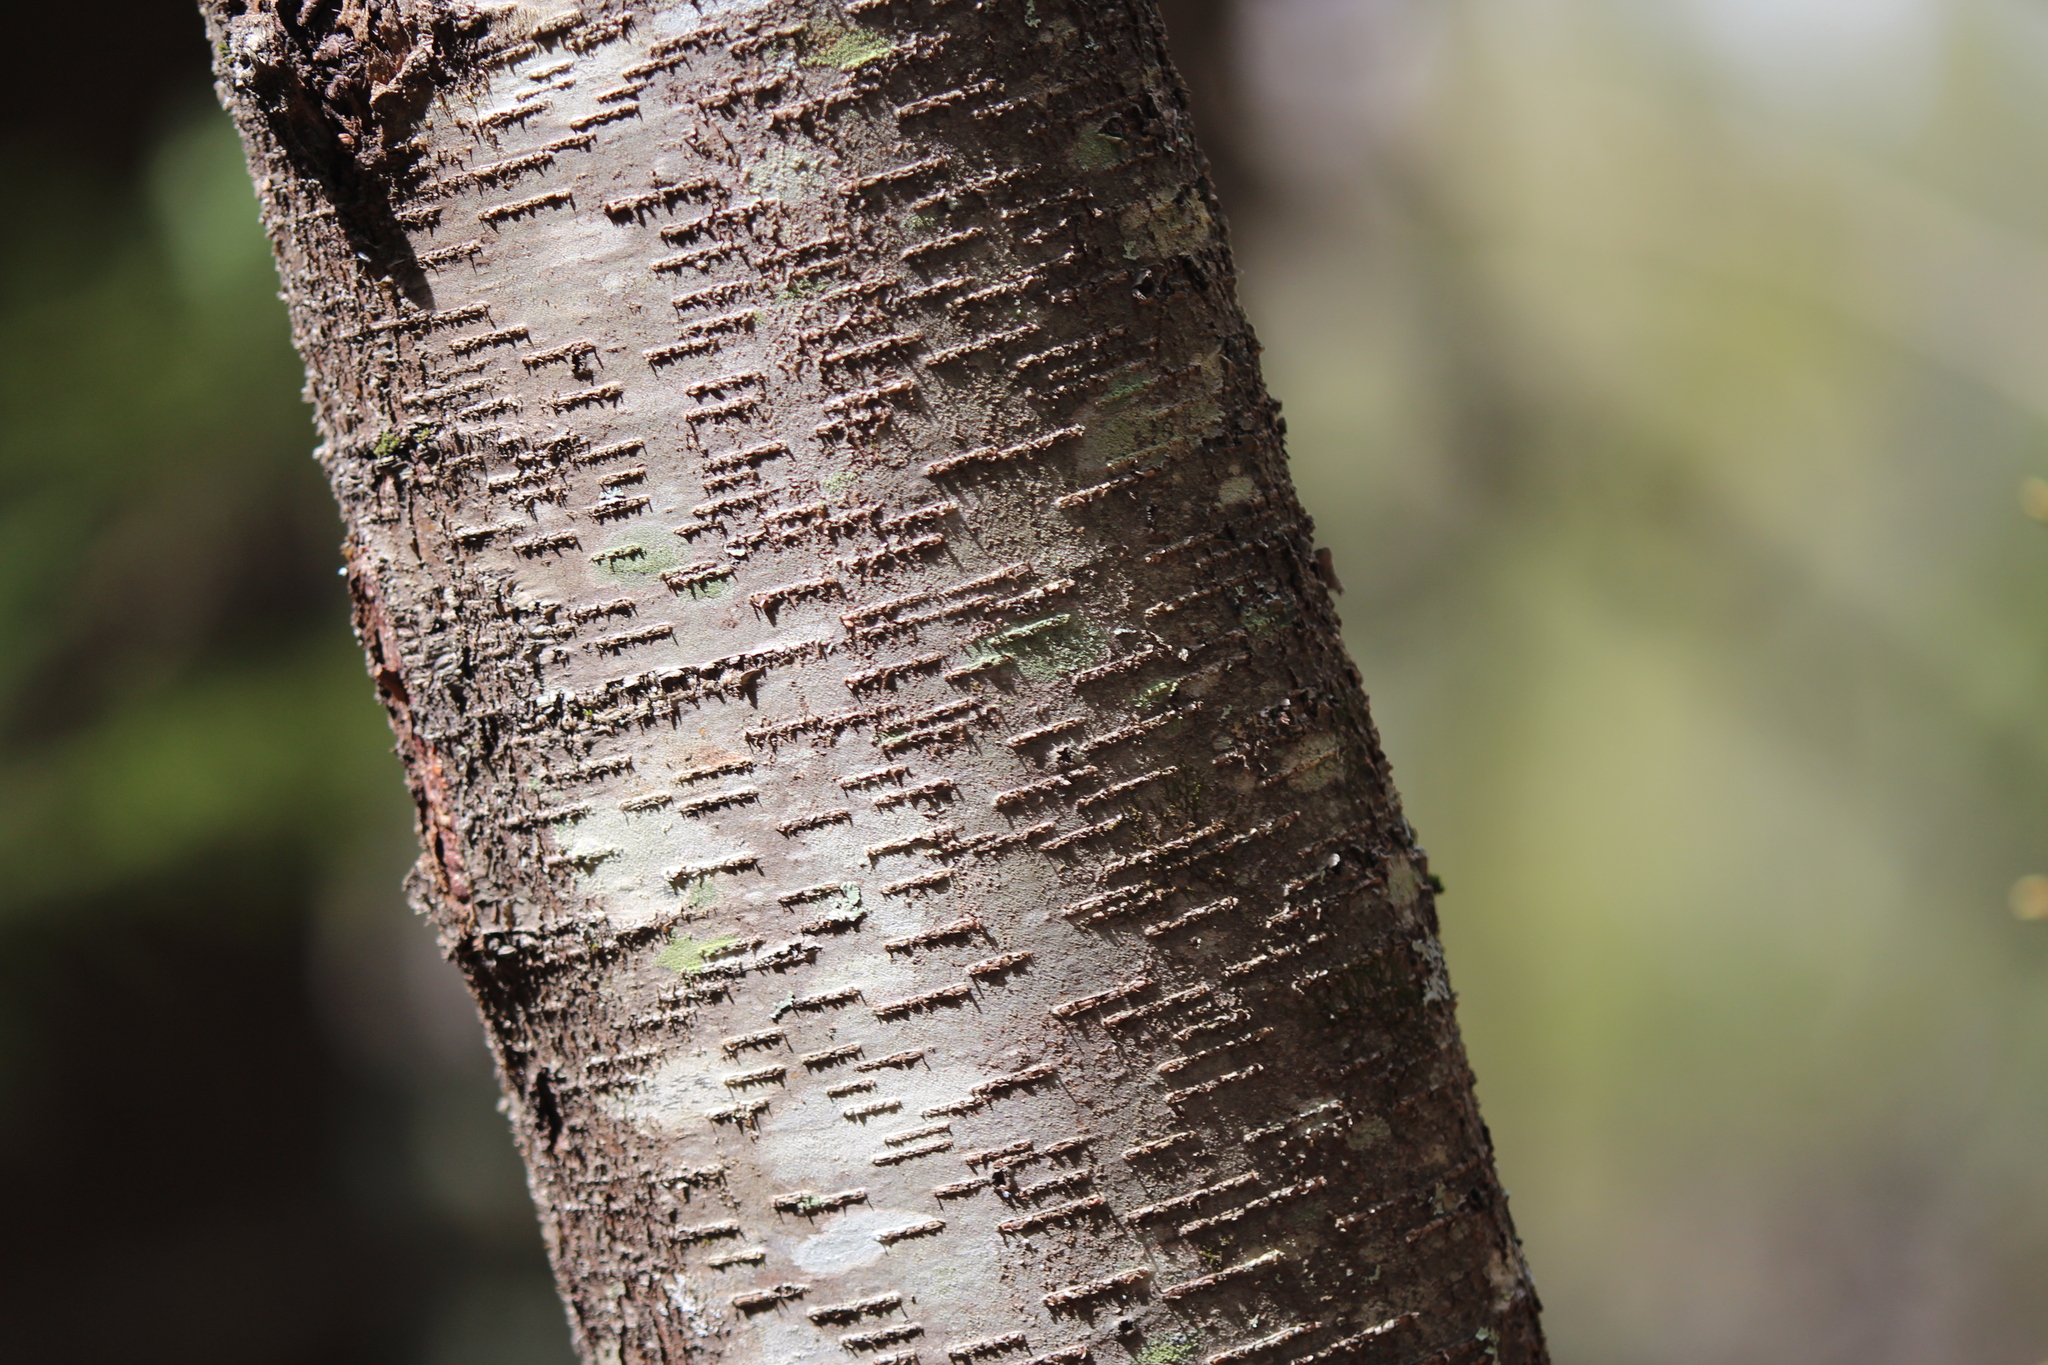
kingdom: Plantae
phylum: Tracheophyta
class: Magnoliopsida
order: Fagales
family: Betulaceae
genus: Betula
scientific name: Betula lenta
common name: Black birch
